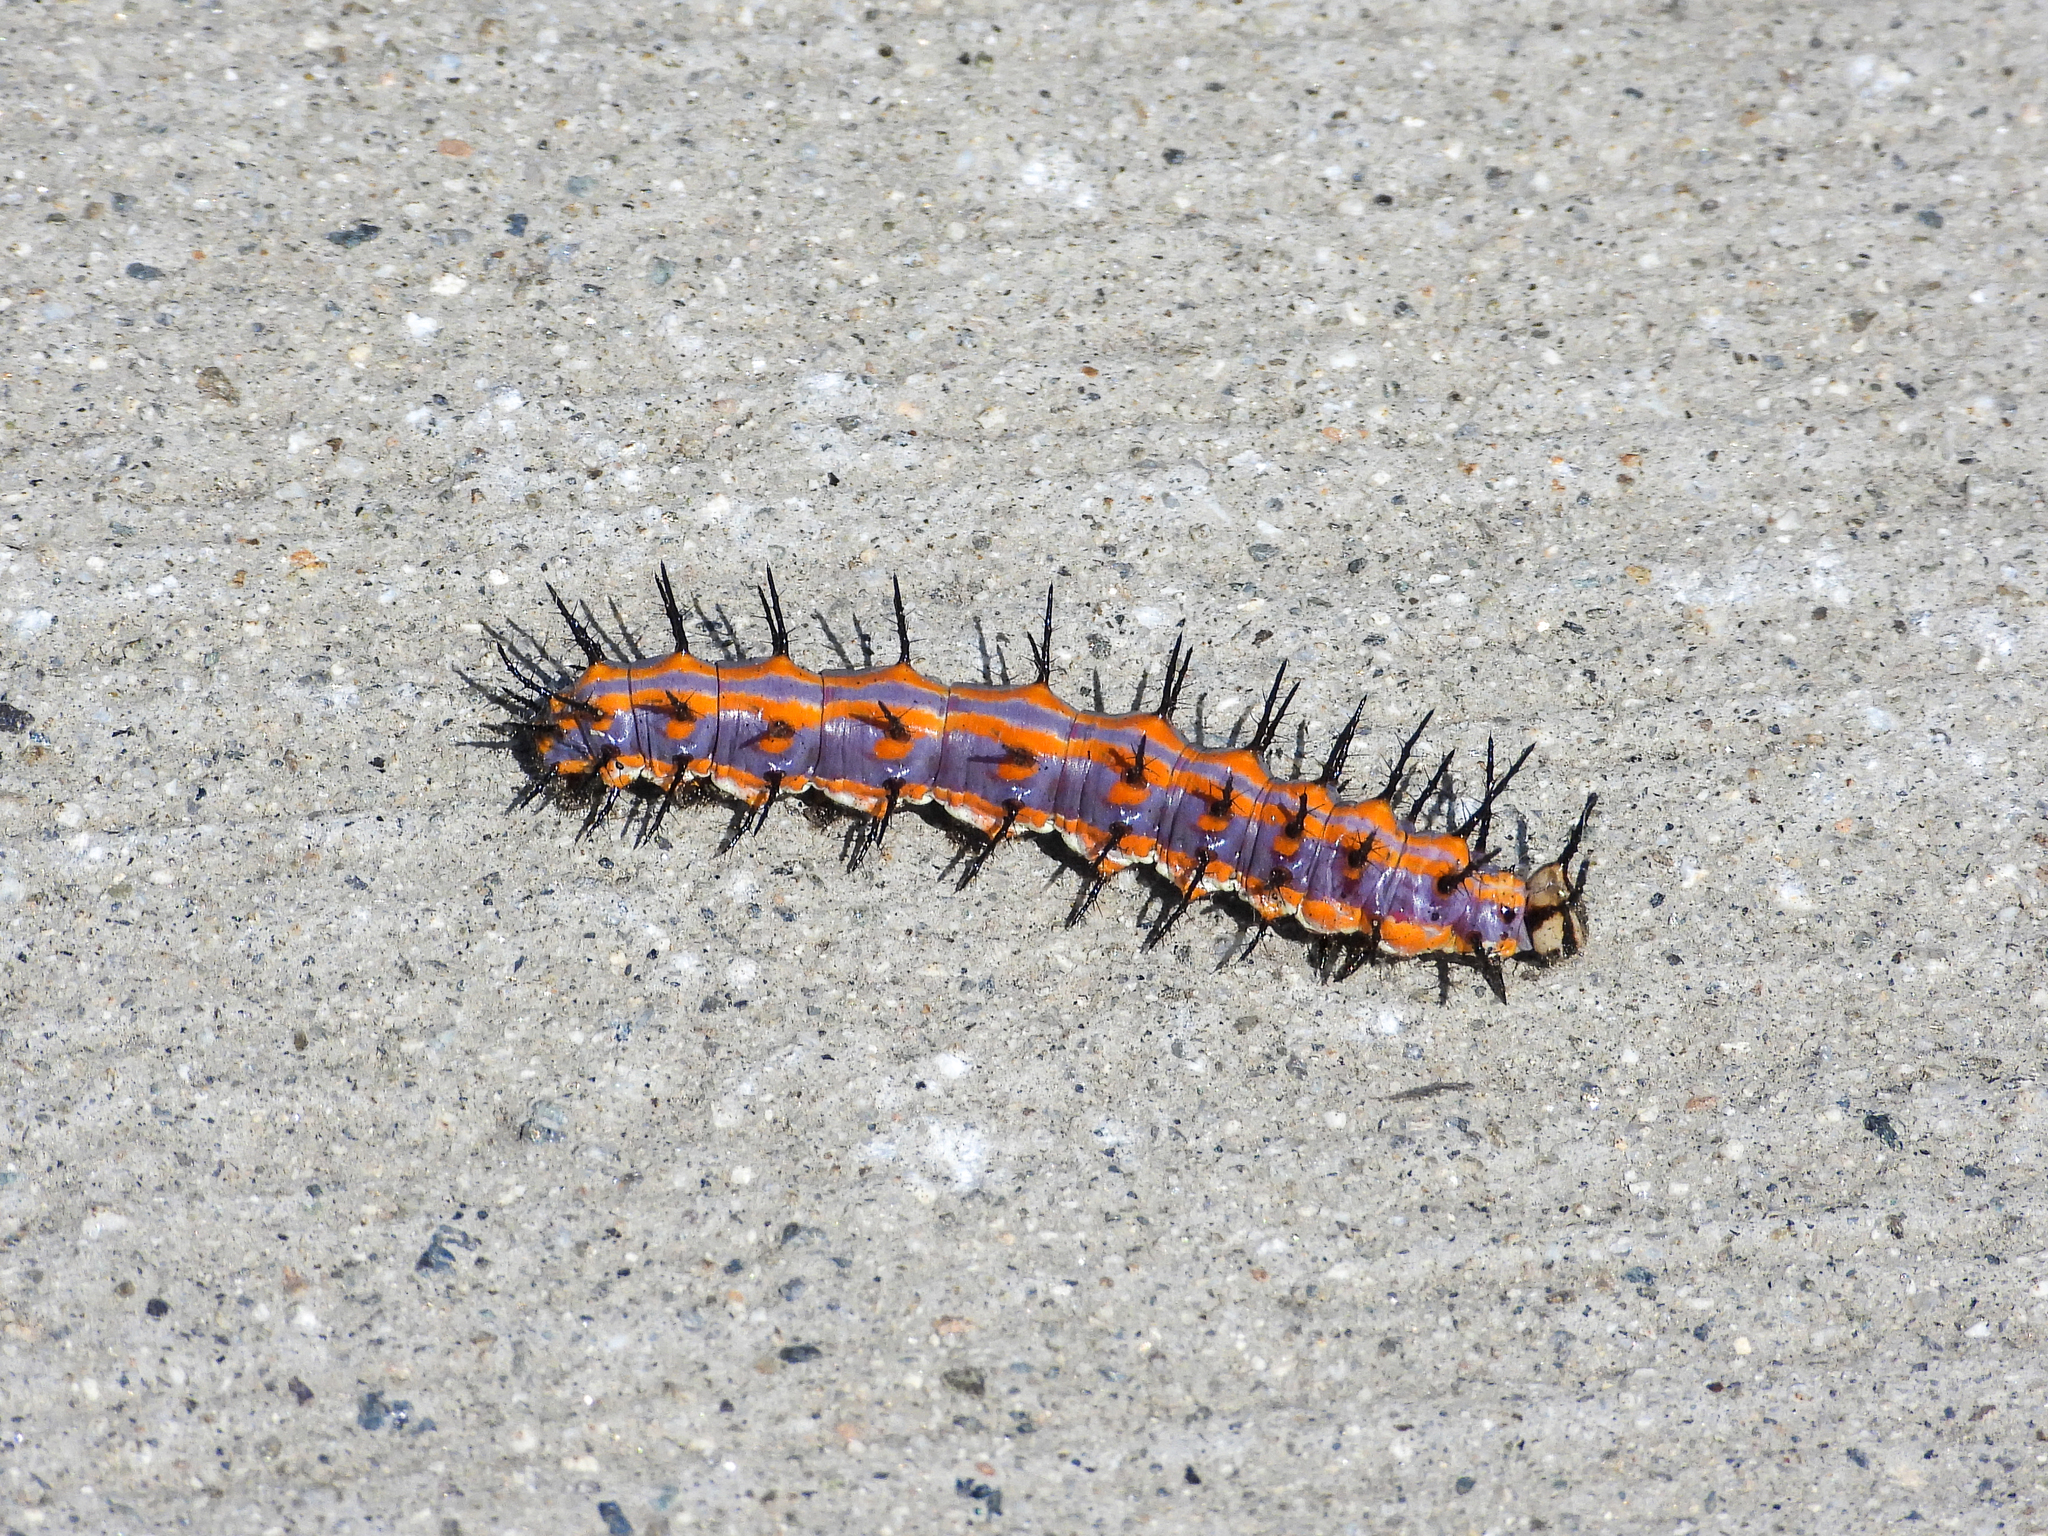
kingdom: Animalia
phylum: Arthropoda
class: Insecta
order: Lepidoptera
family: Nymphalidae
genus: Dione
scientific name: Dione vanillae
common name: Gulf fritillary
